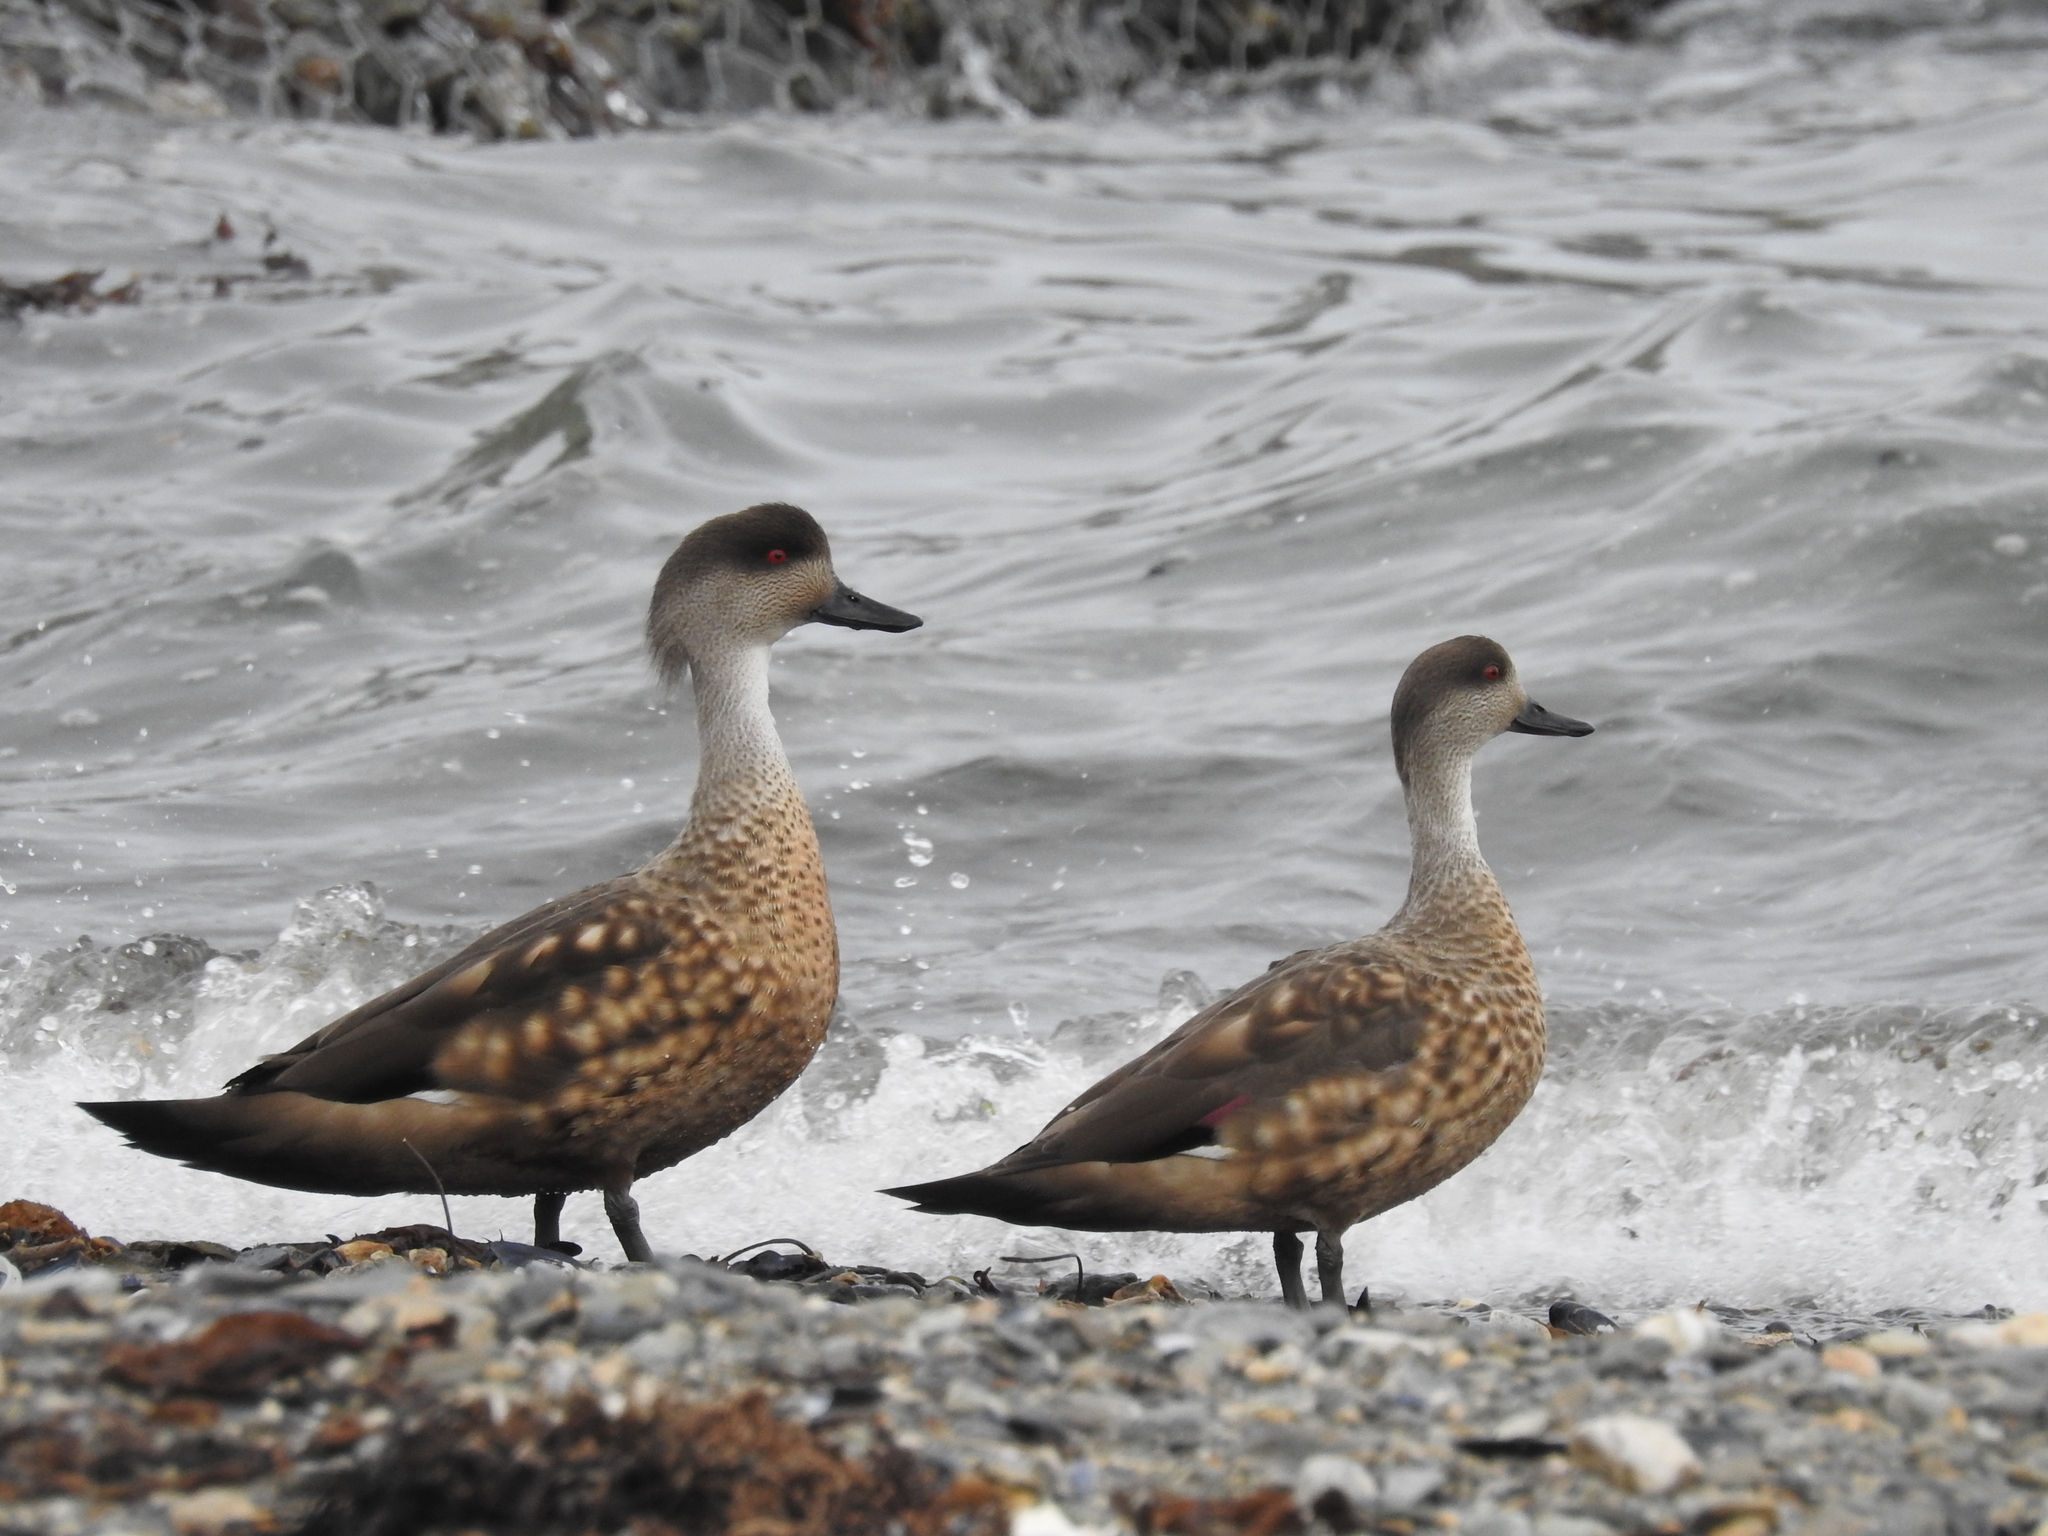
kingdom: Animalia
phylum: Chordata
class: Aves
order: Anseriformes
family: Anatidae
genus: Lophonetta
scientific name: Lophonetta specularioides
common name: Crested duck
